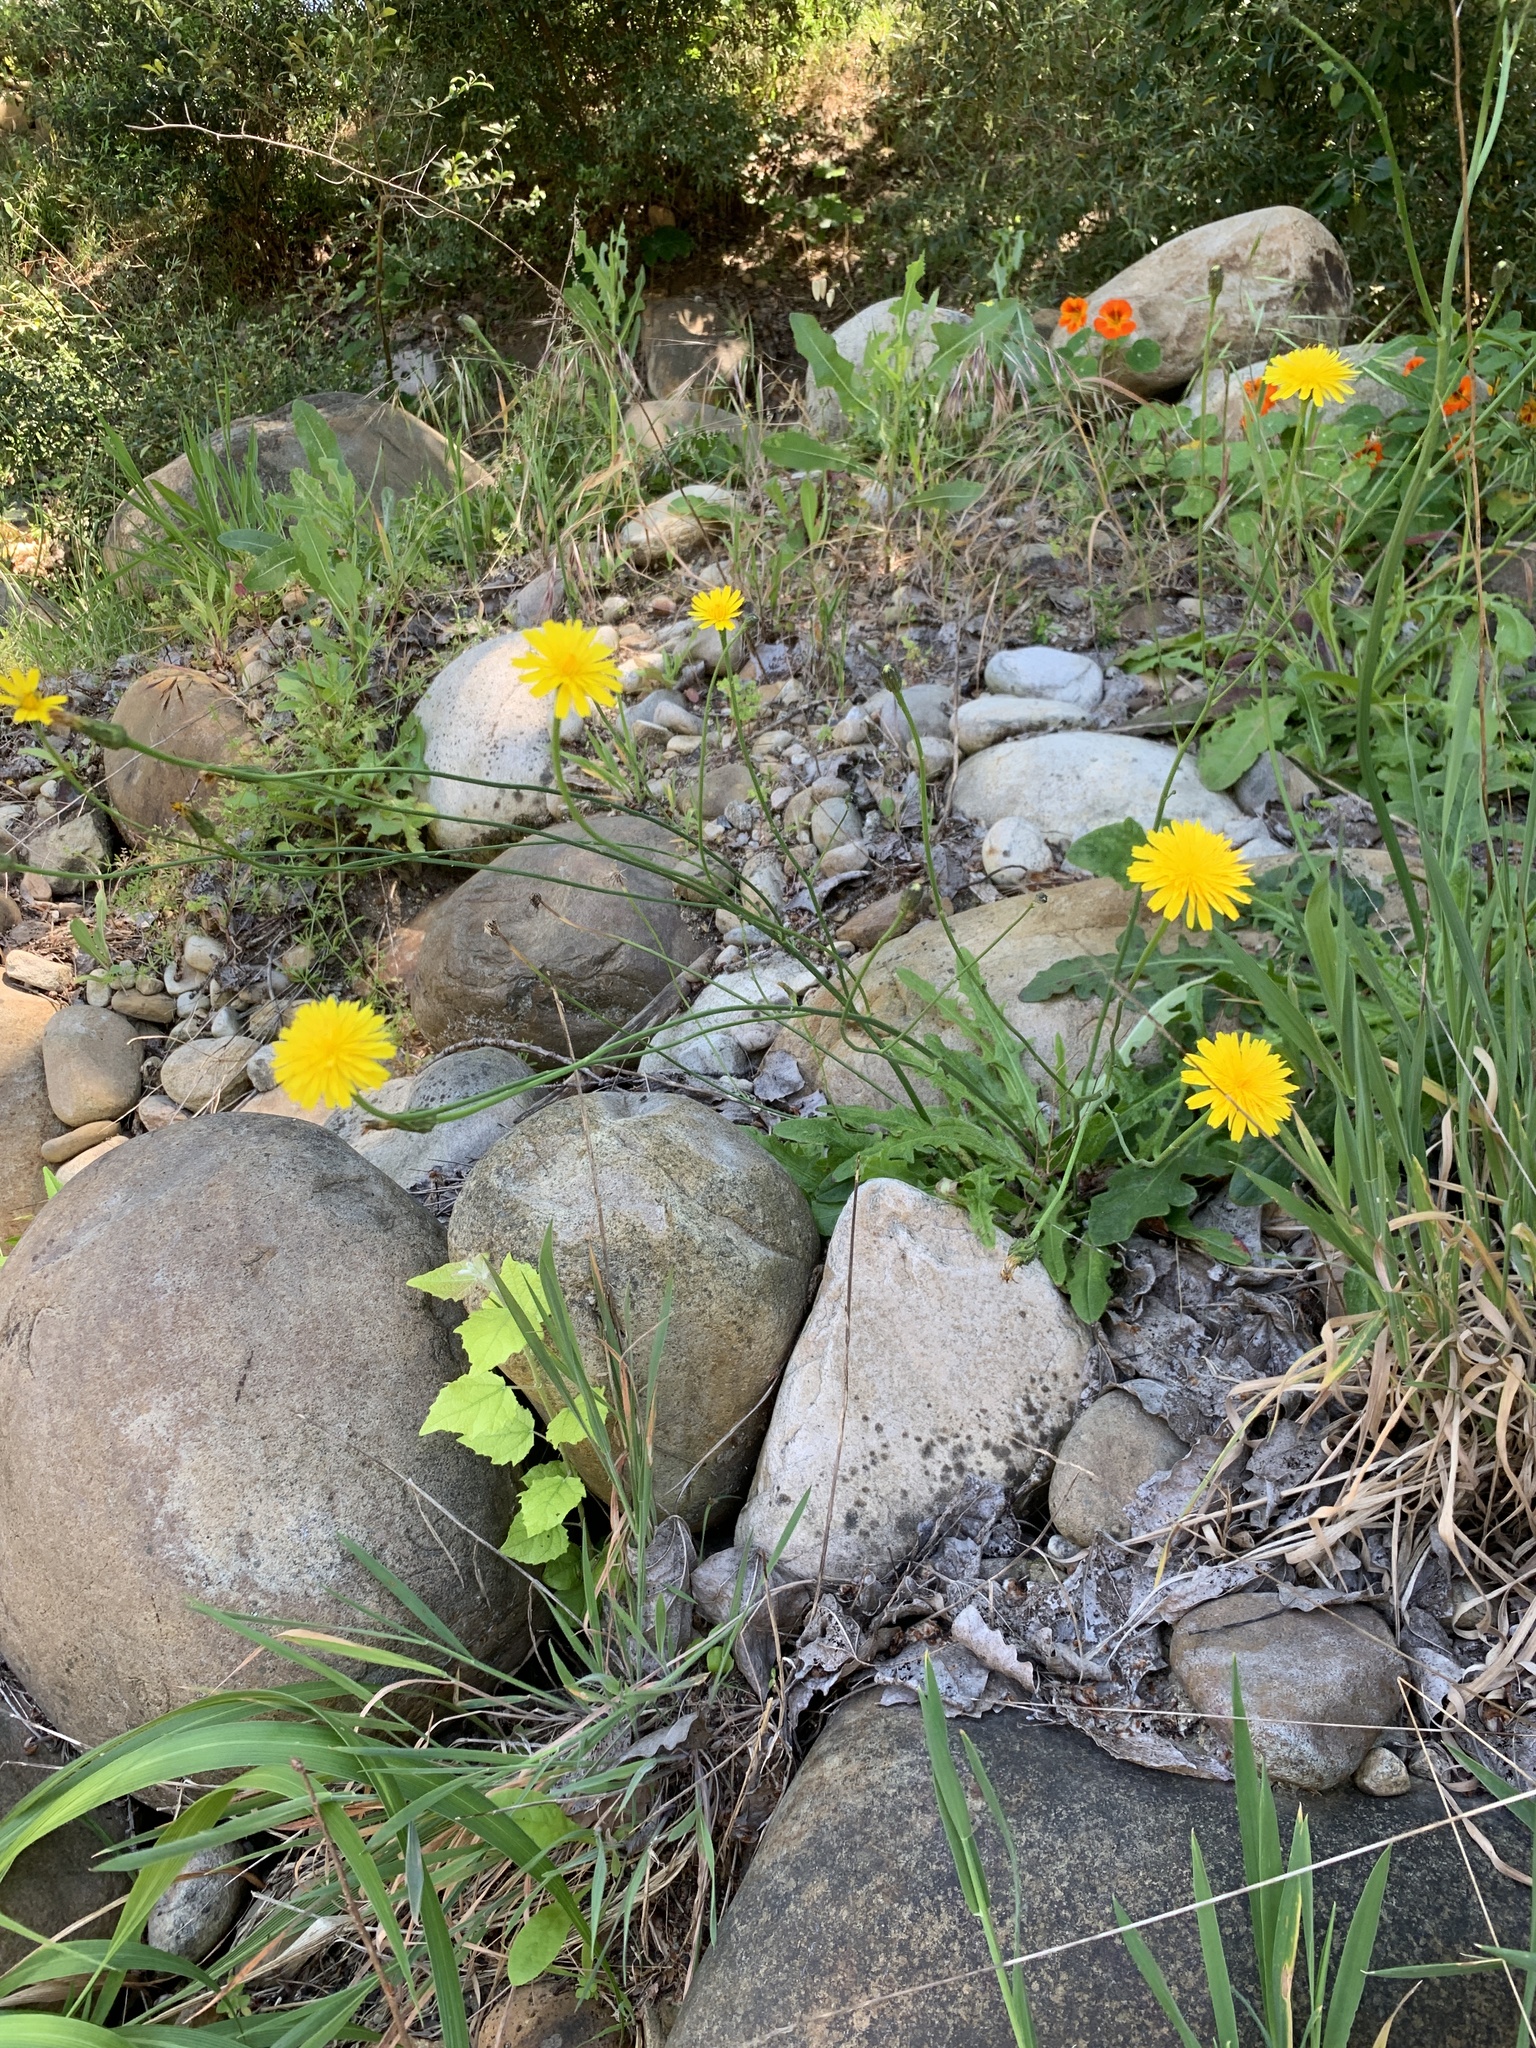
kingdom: Plantae
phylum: Tracheophyta
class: Magnoliopsida
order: Asterales
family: Asteraceae
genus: Hypochaeris
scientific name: Hypochaeris radicata
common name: Flatweed
